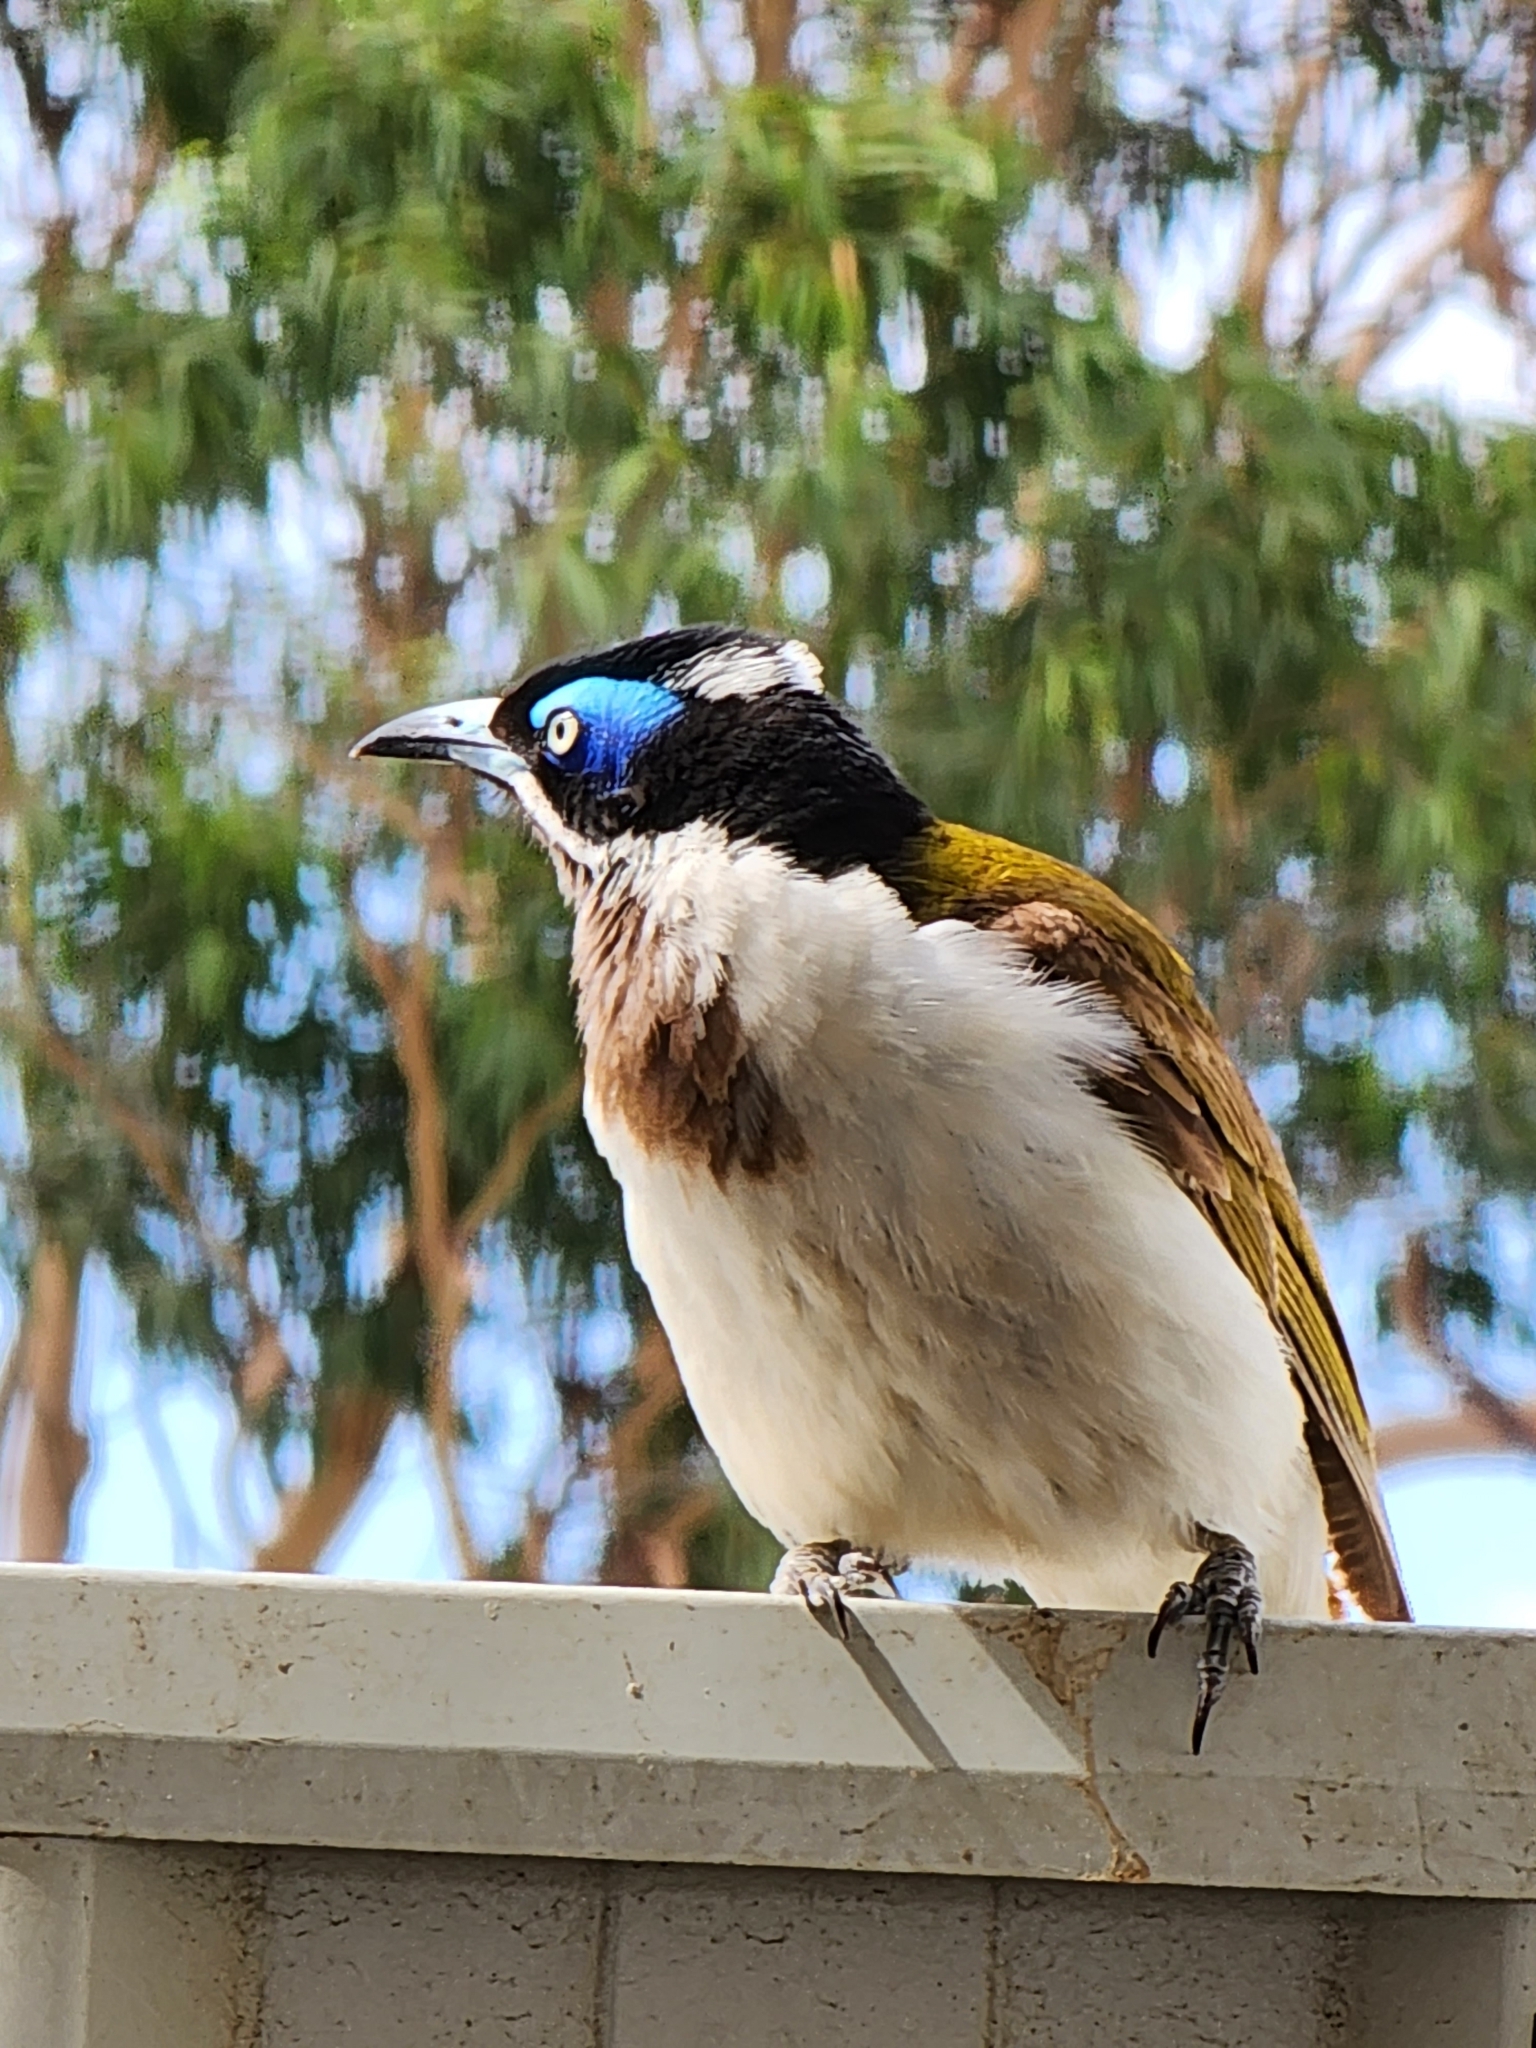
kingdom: Animalia
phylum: Chordata
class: Aves
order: Passeriformes
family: Meliphagidae
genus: Entomyzon
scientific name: Entomyzon cyanotis
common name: Blue-faced honeyeater
